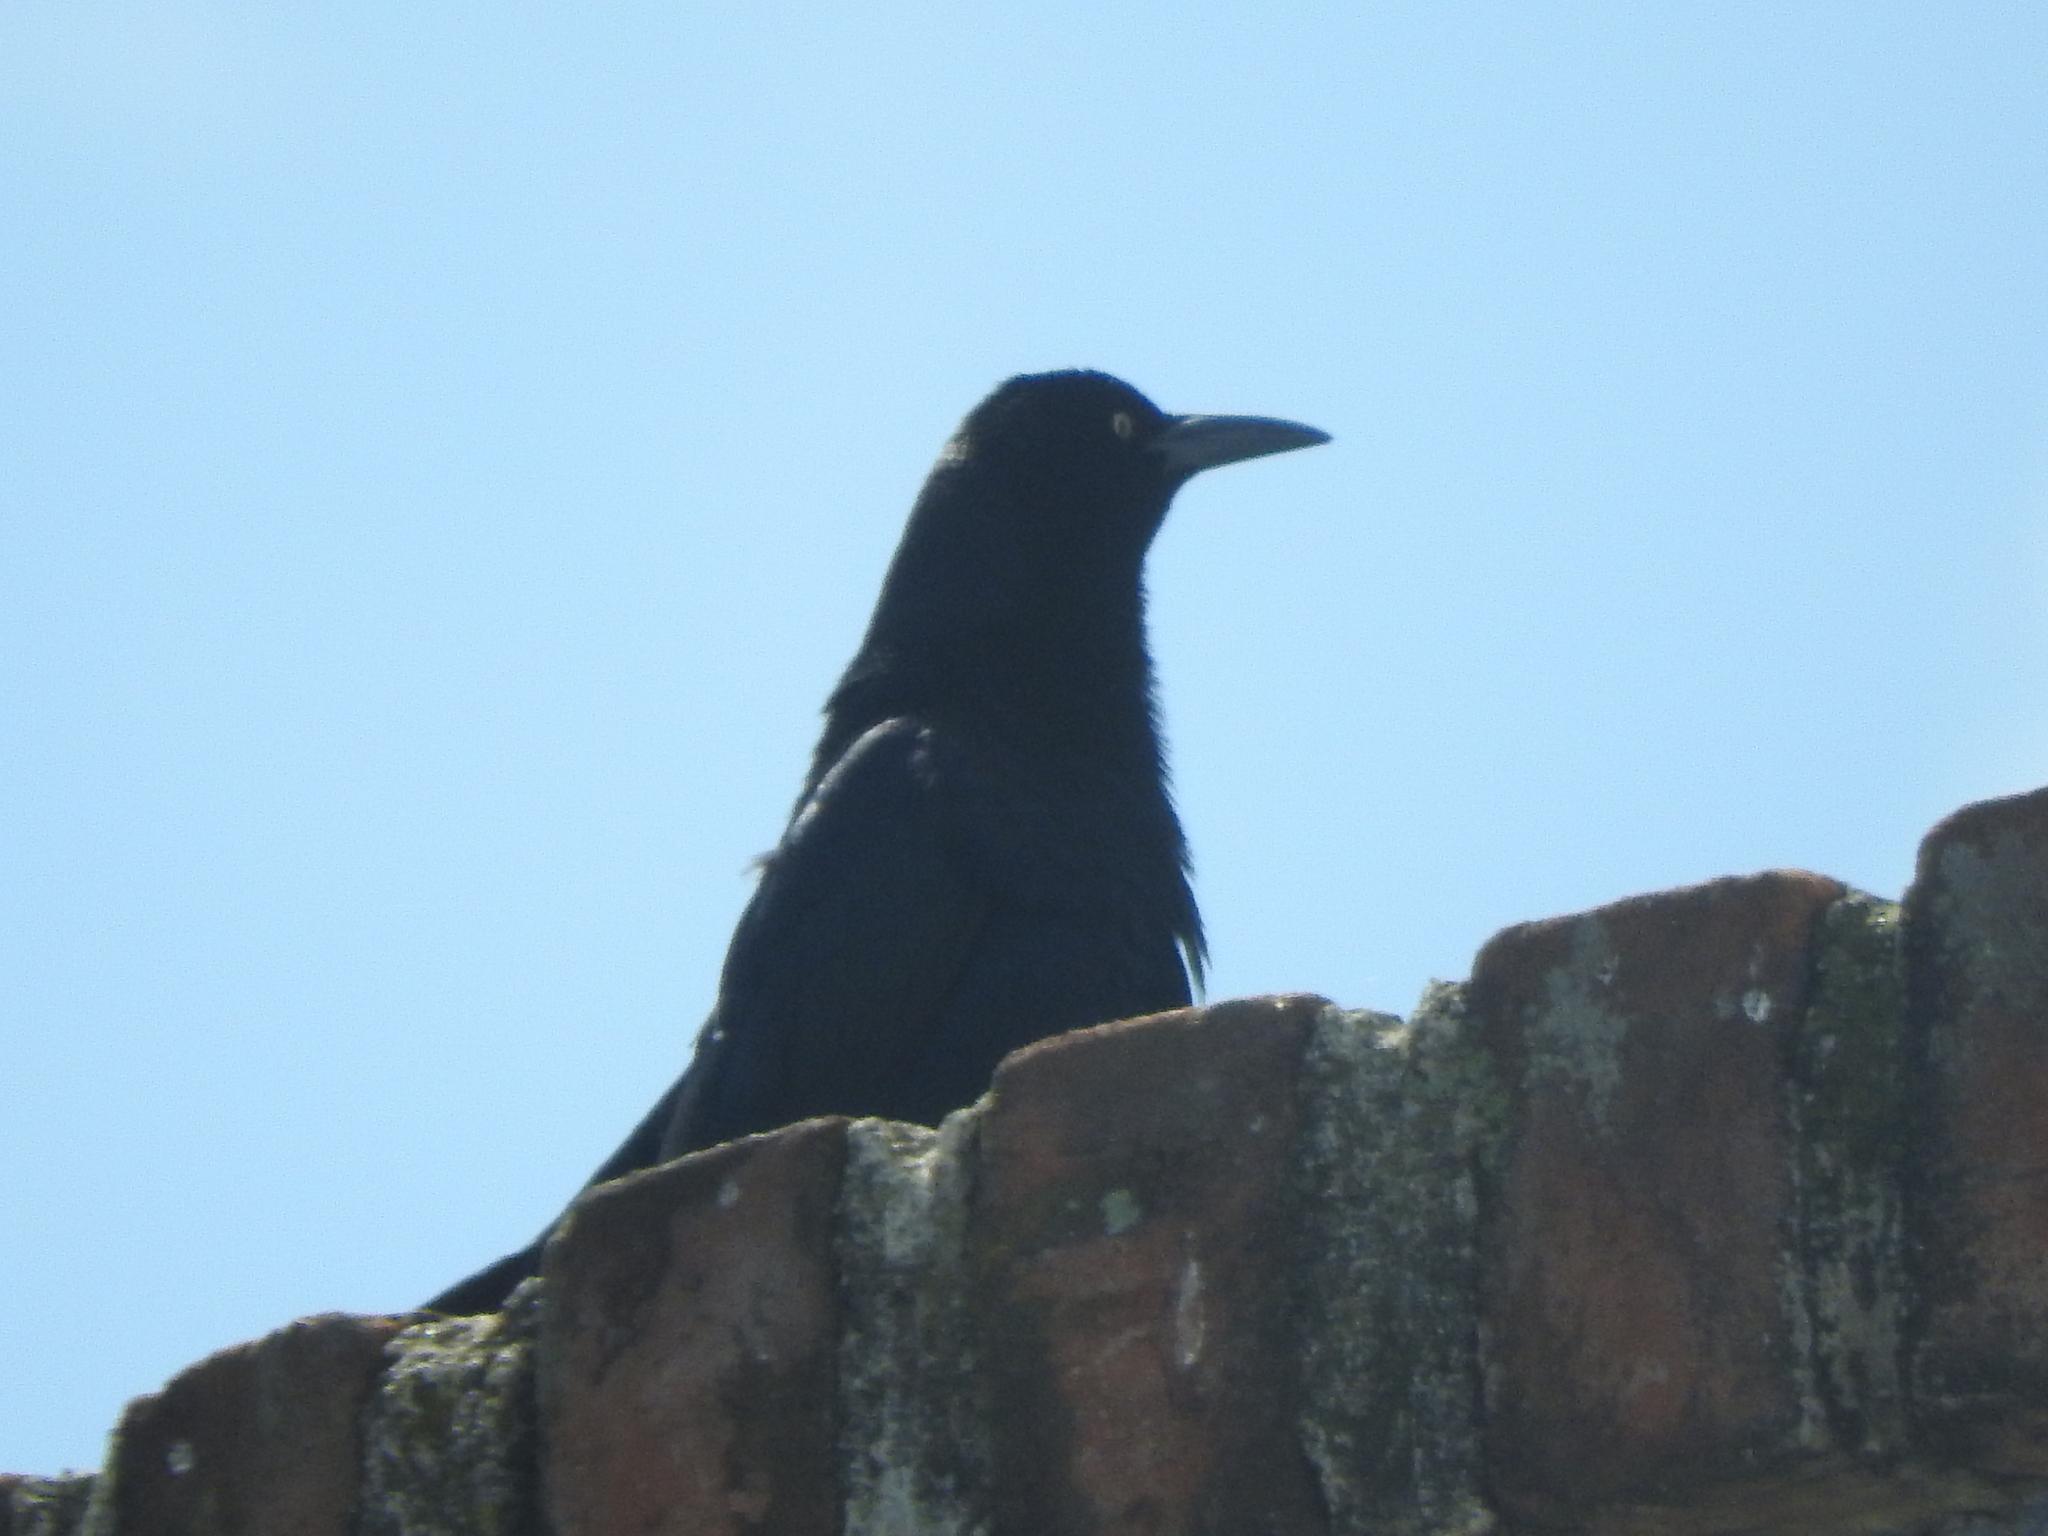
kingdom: Animalia
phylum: Chordata
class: Aves
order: Passeriformes
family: Icteridae
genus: Quiscalus
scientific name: Quiscalus mexicanus
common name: Great-tailed grackle
